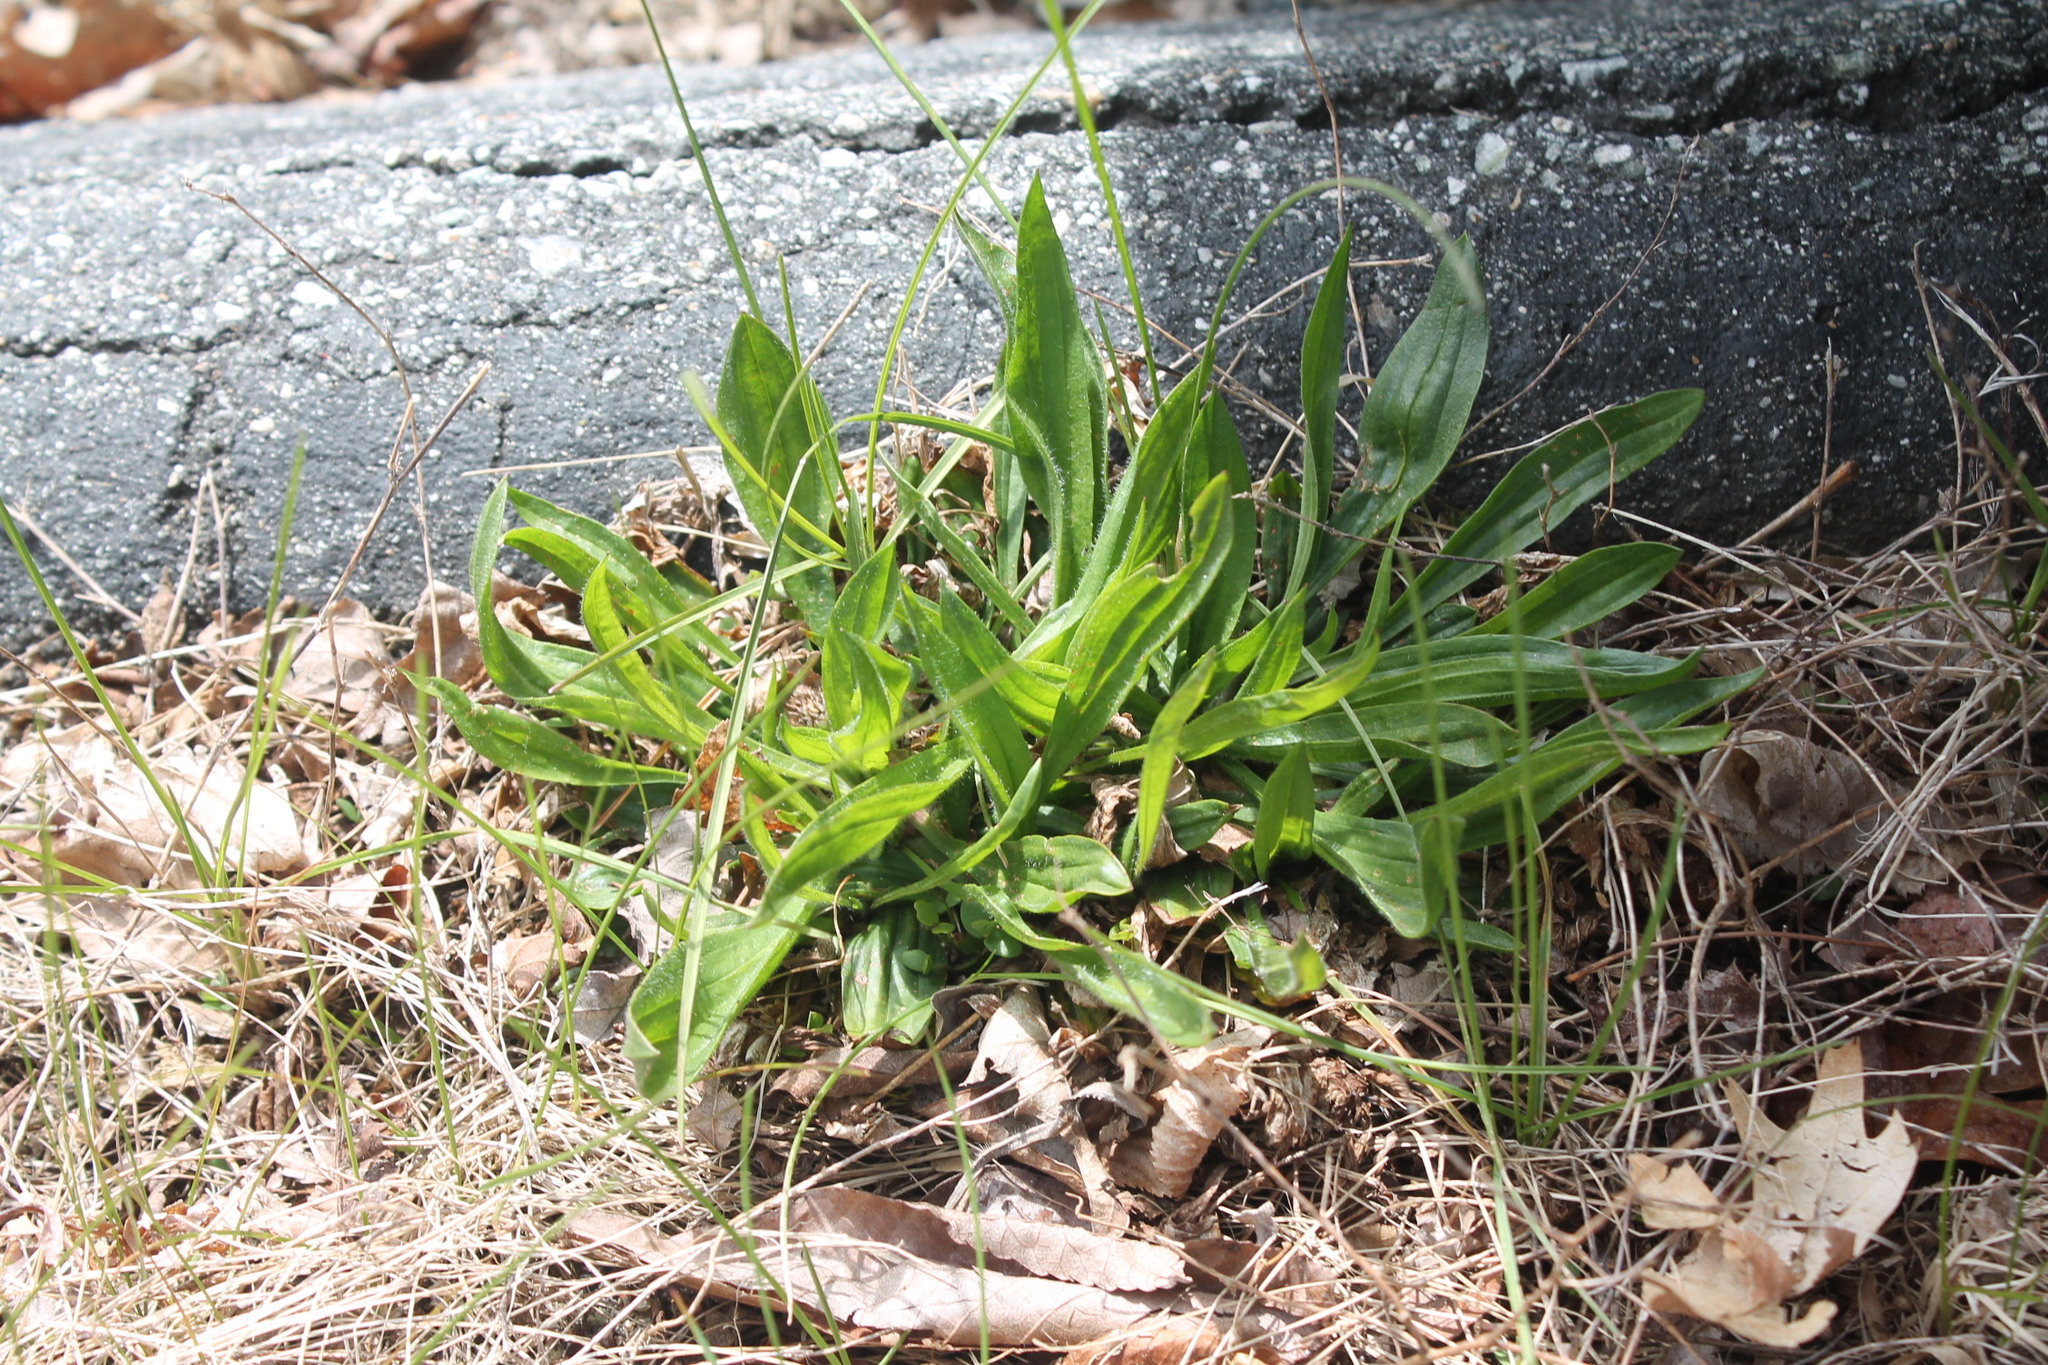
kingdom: Plantae
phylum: Tracheophyta
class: Magnoliopsida
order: Lamiales
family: Plantaginaceae
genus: Plantago
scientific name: Plantago lanceolata
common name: Ribwort plantain
